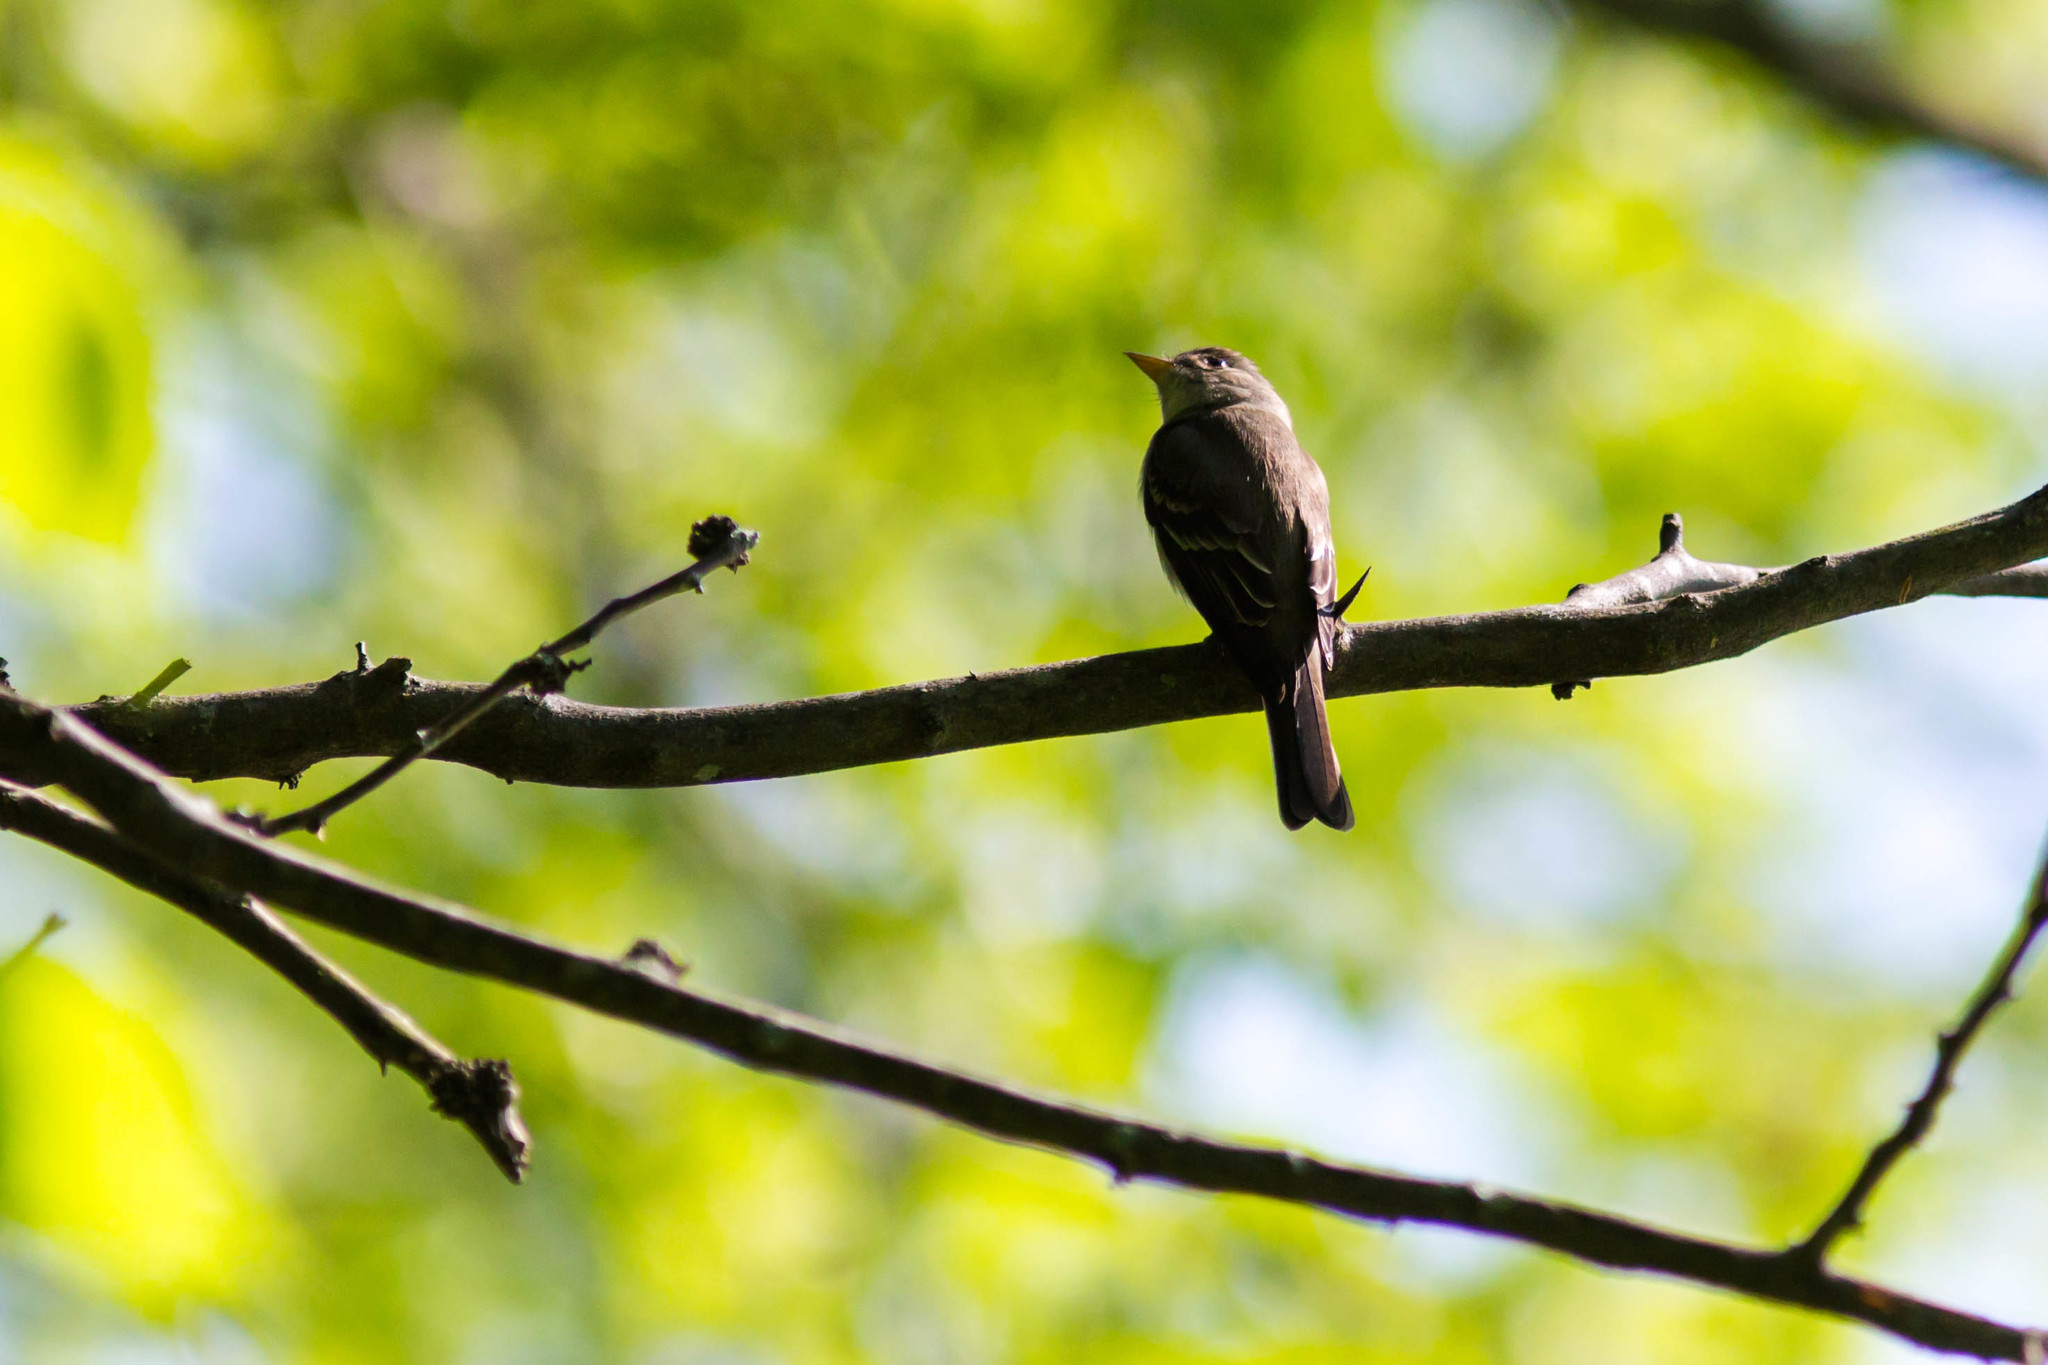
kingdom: Animalia
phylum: Chordata
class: Aves
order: Passeriformes
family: Tyrannidae
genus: Contopus
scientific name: Contopus virens
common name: Eastern wood-pewee
